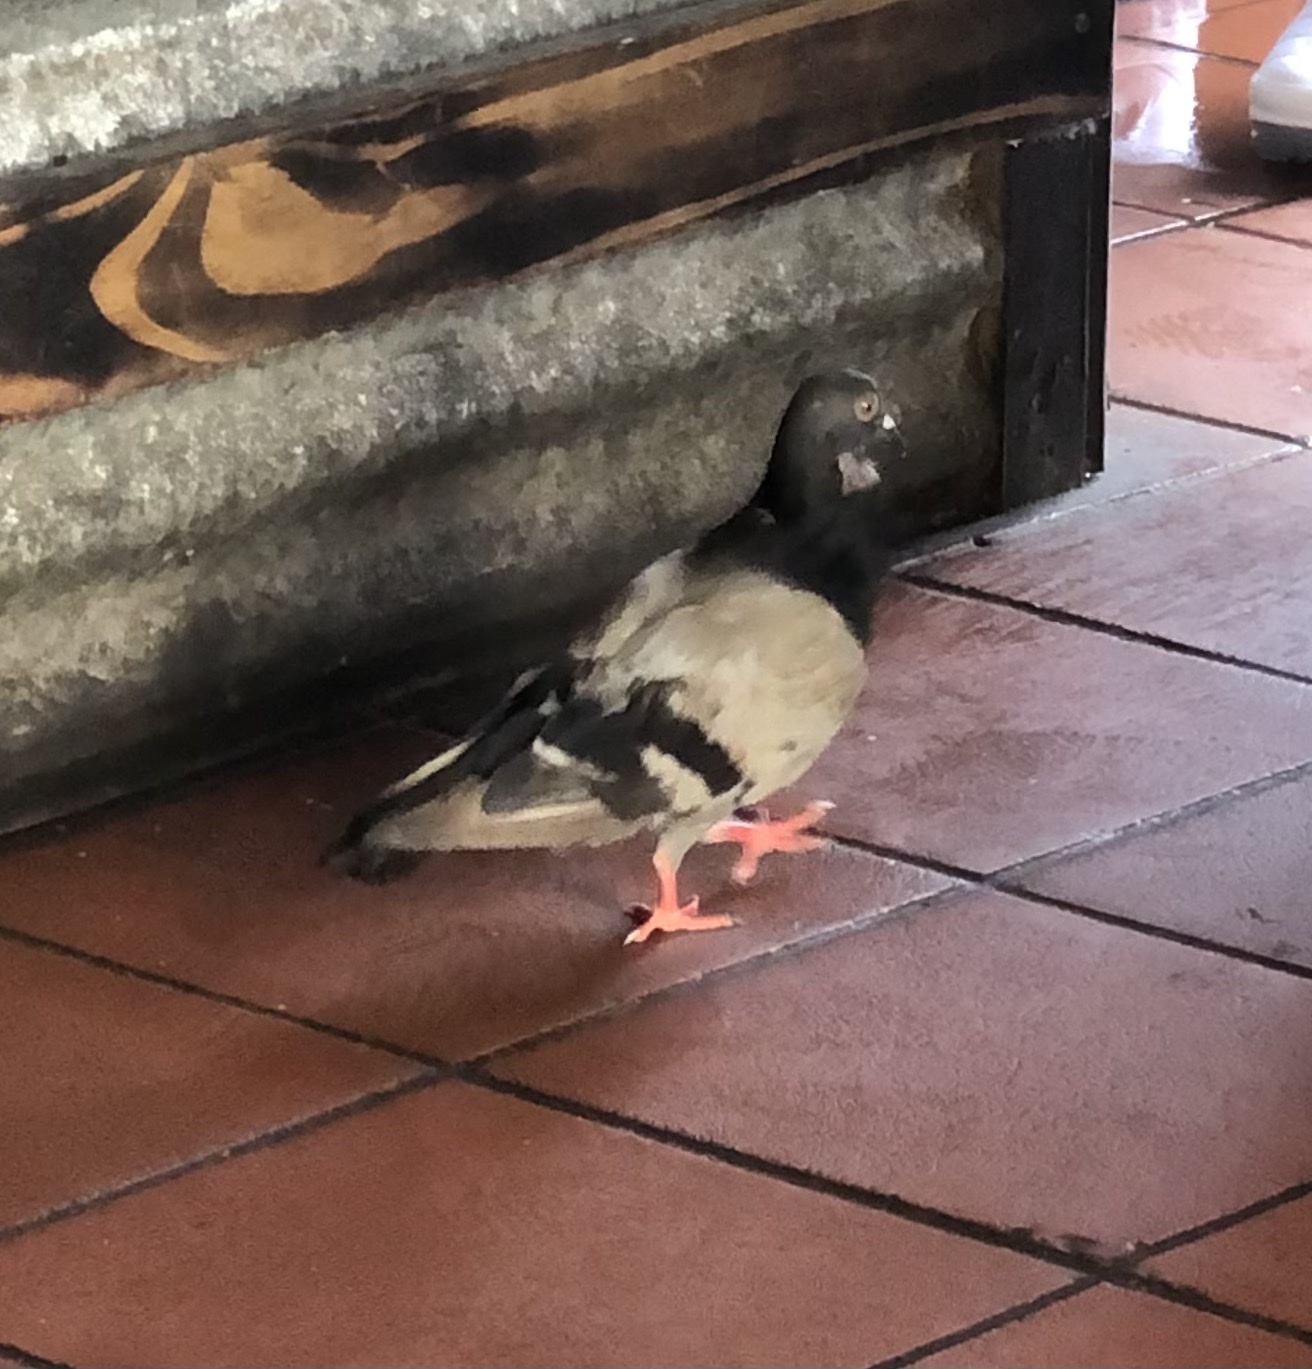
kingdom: Animalia
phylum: Chordata
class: Aves
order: Columbiformes
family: Columbidae
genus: Columba
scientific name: Columba livia
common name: Rock pigeon
